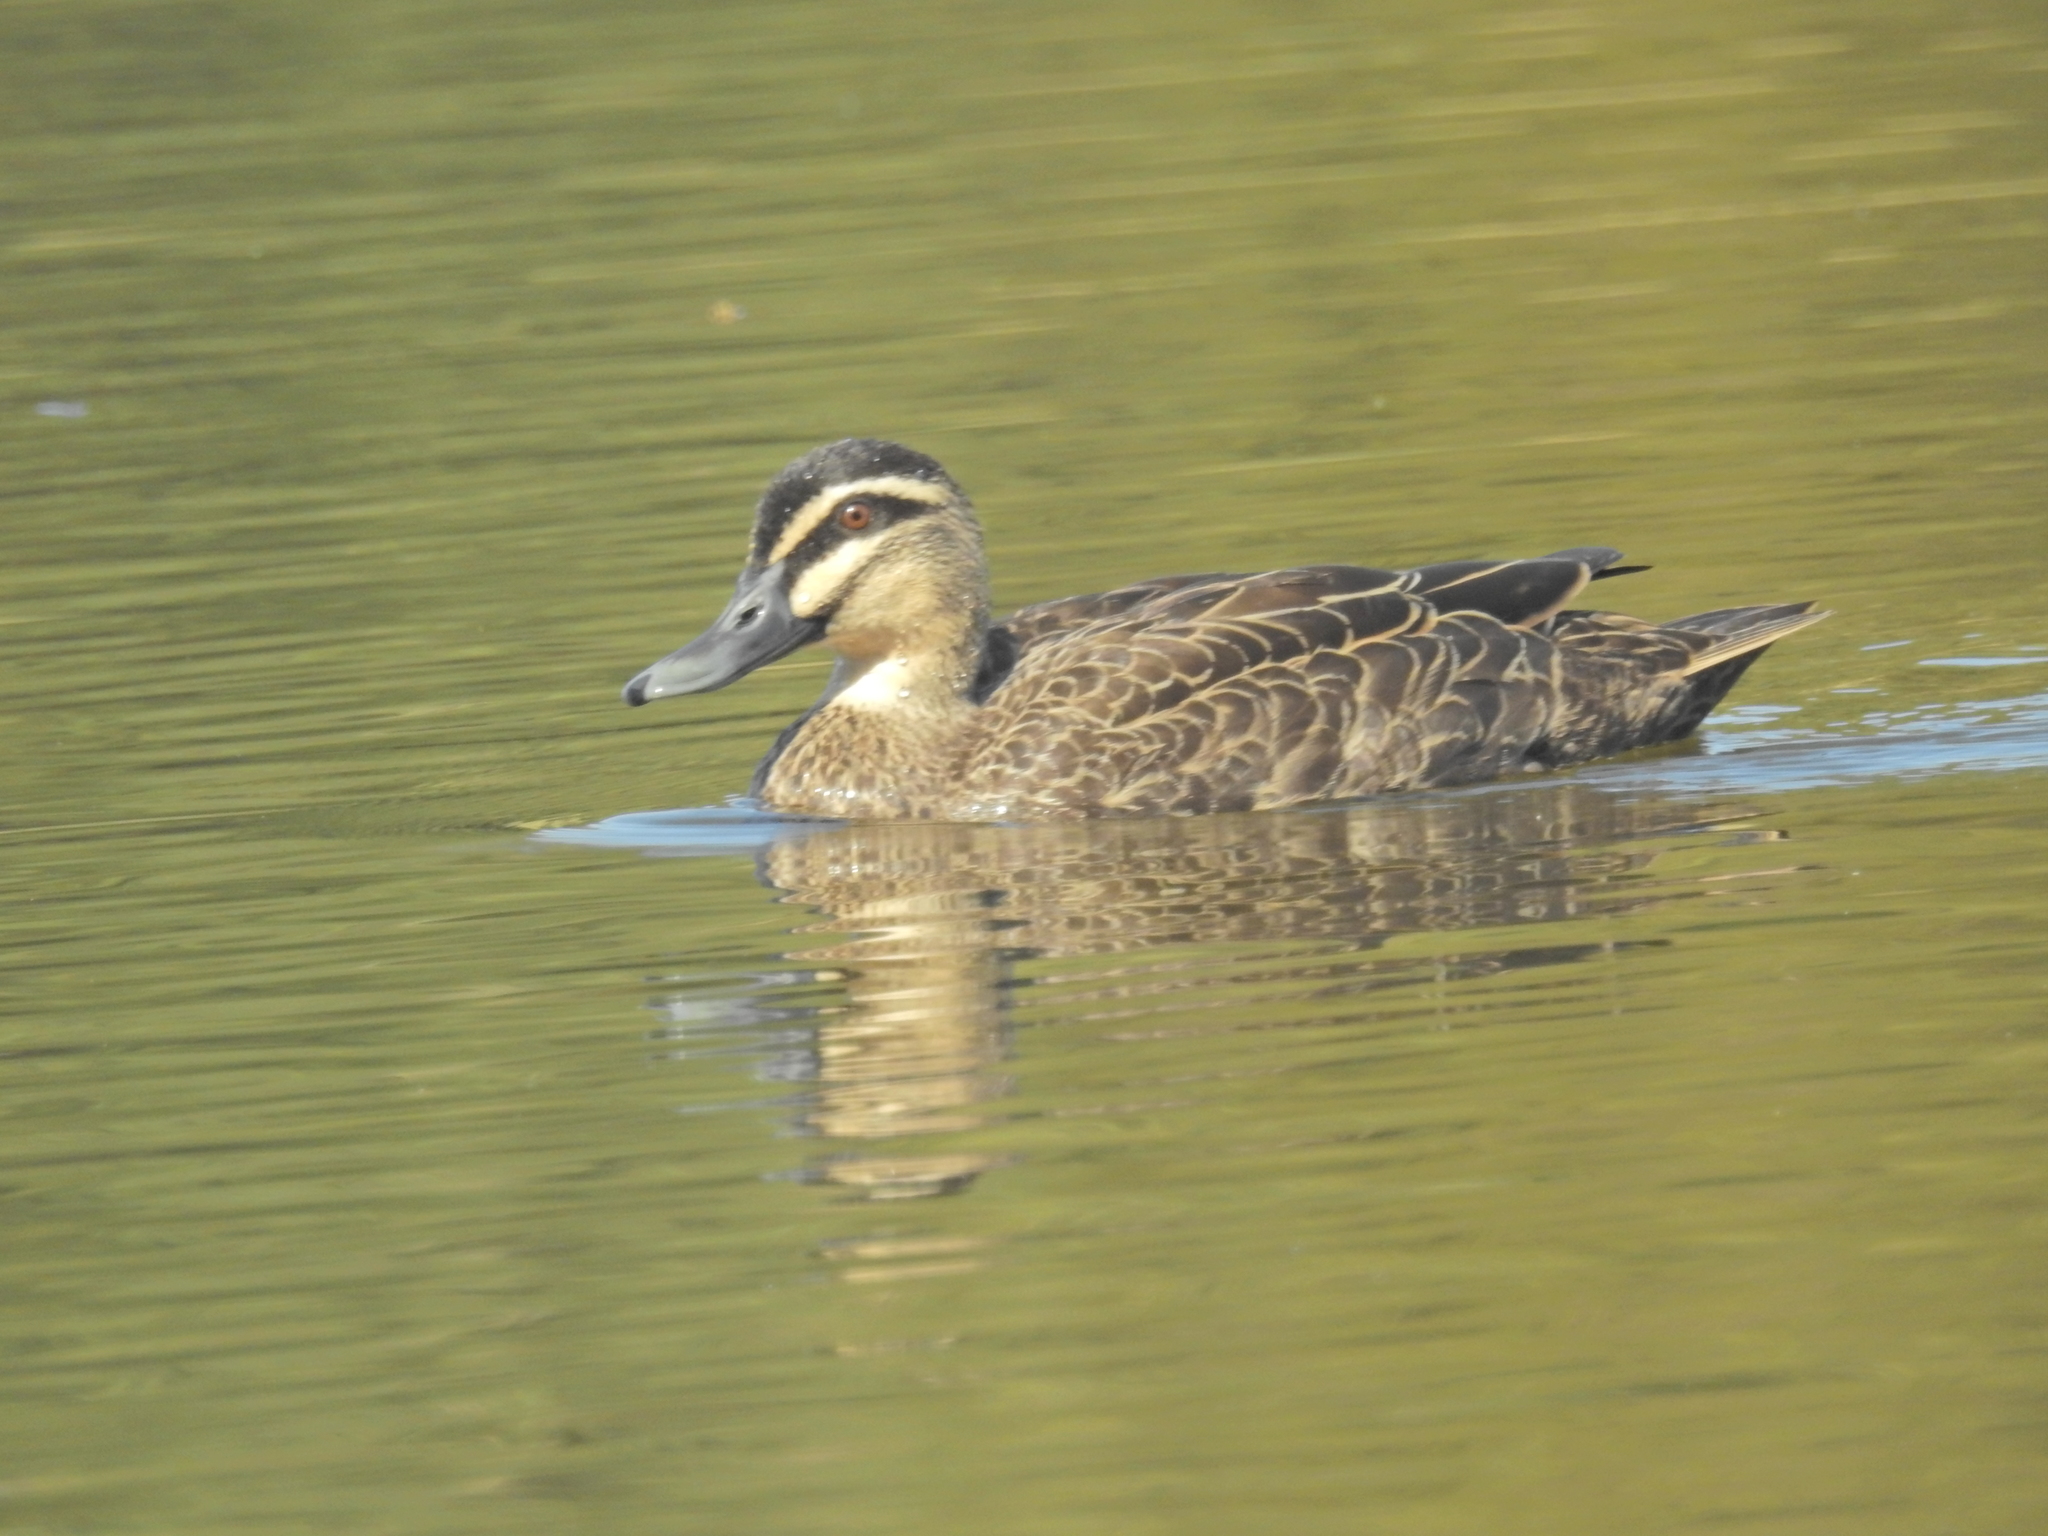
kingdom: Animalia
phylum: Chordata
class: Aves
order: Anseriformes
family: Anatidae
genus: Anas
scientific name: Anas
